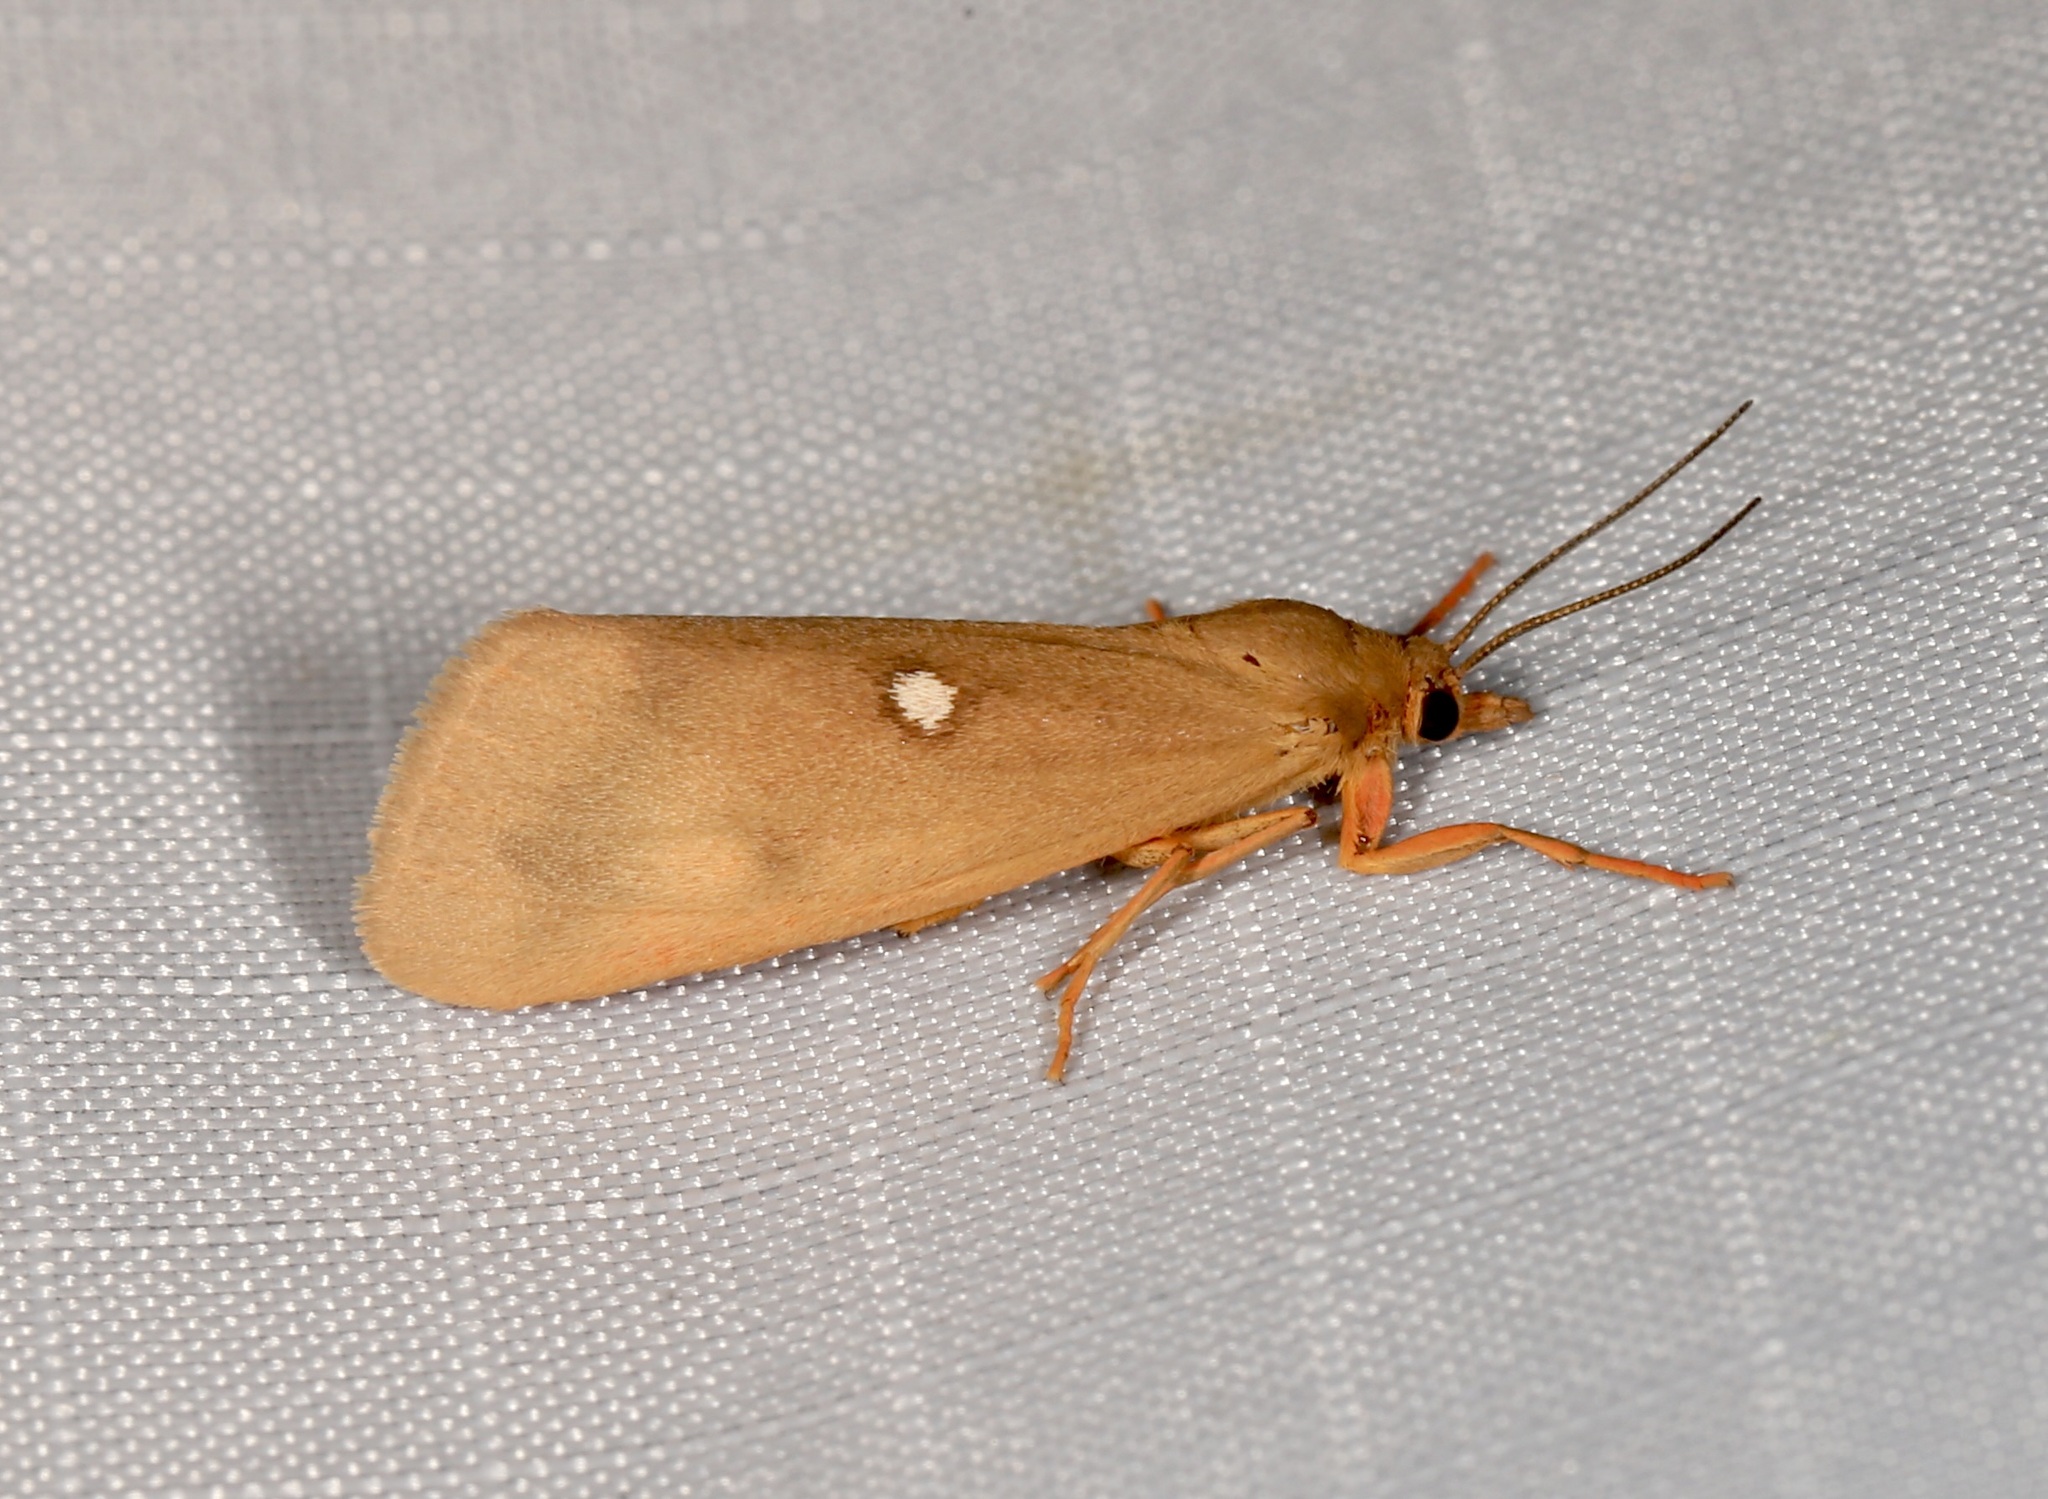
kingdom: Animalia
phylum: Arthropoda
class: Insecta
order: Lepidoptera
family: Erebidae
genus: Virbia
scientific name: Virbia aurantiaca
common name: Orange virbia moth
